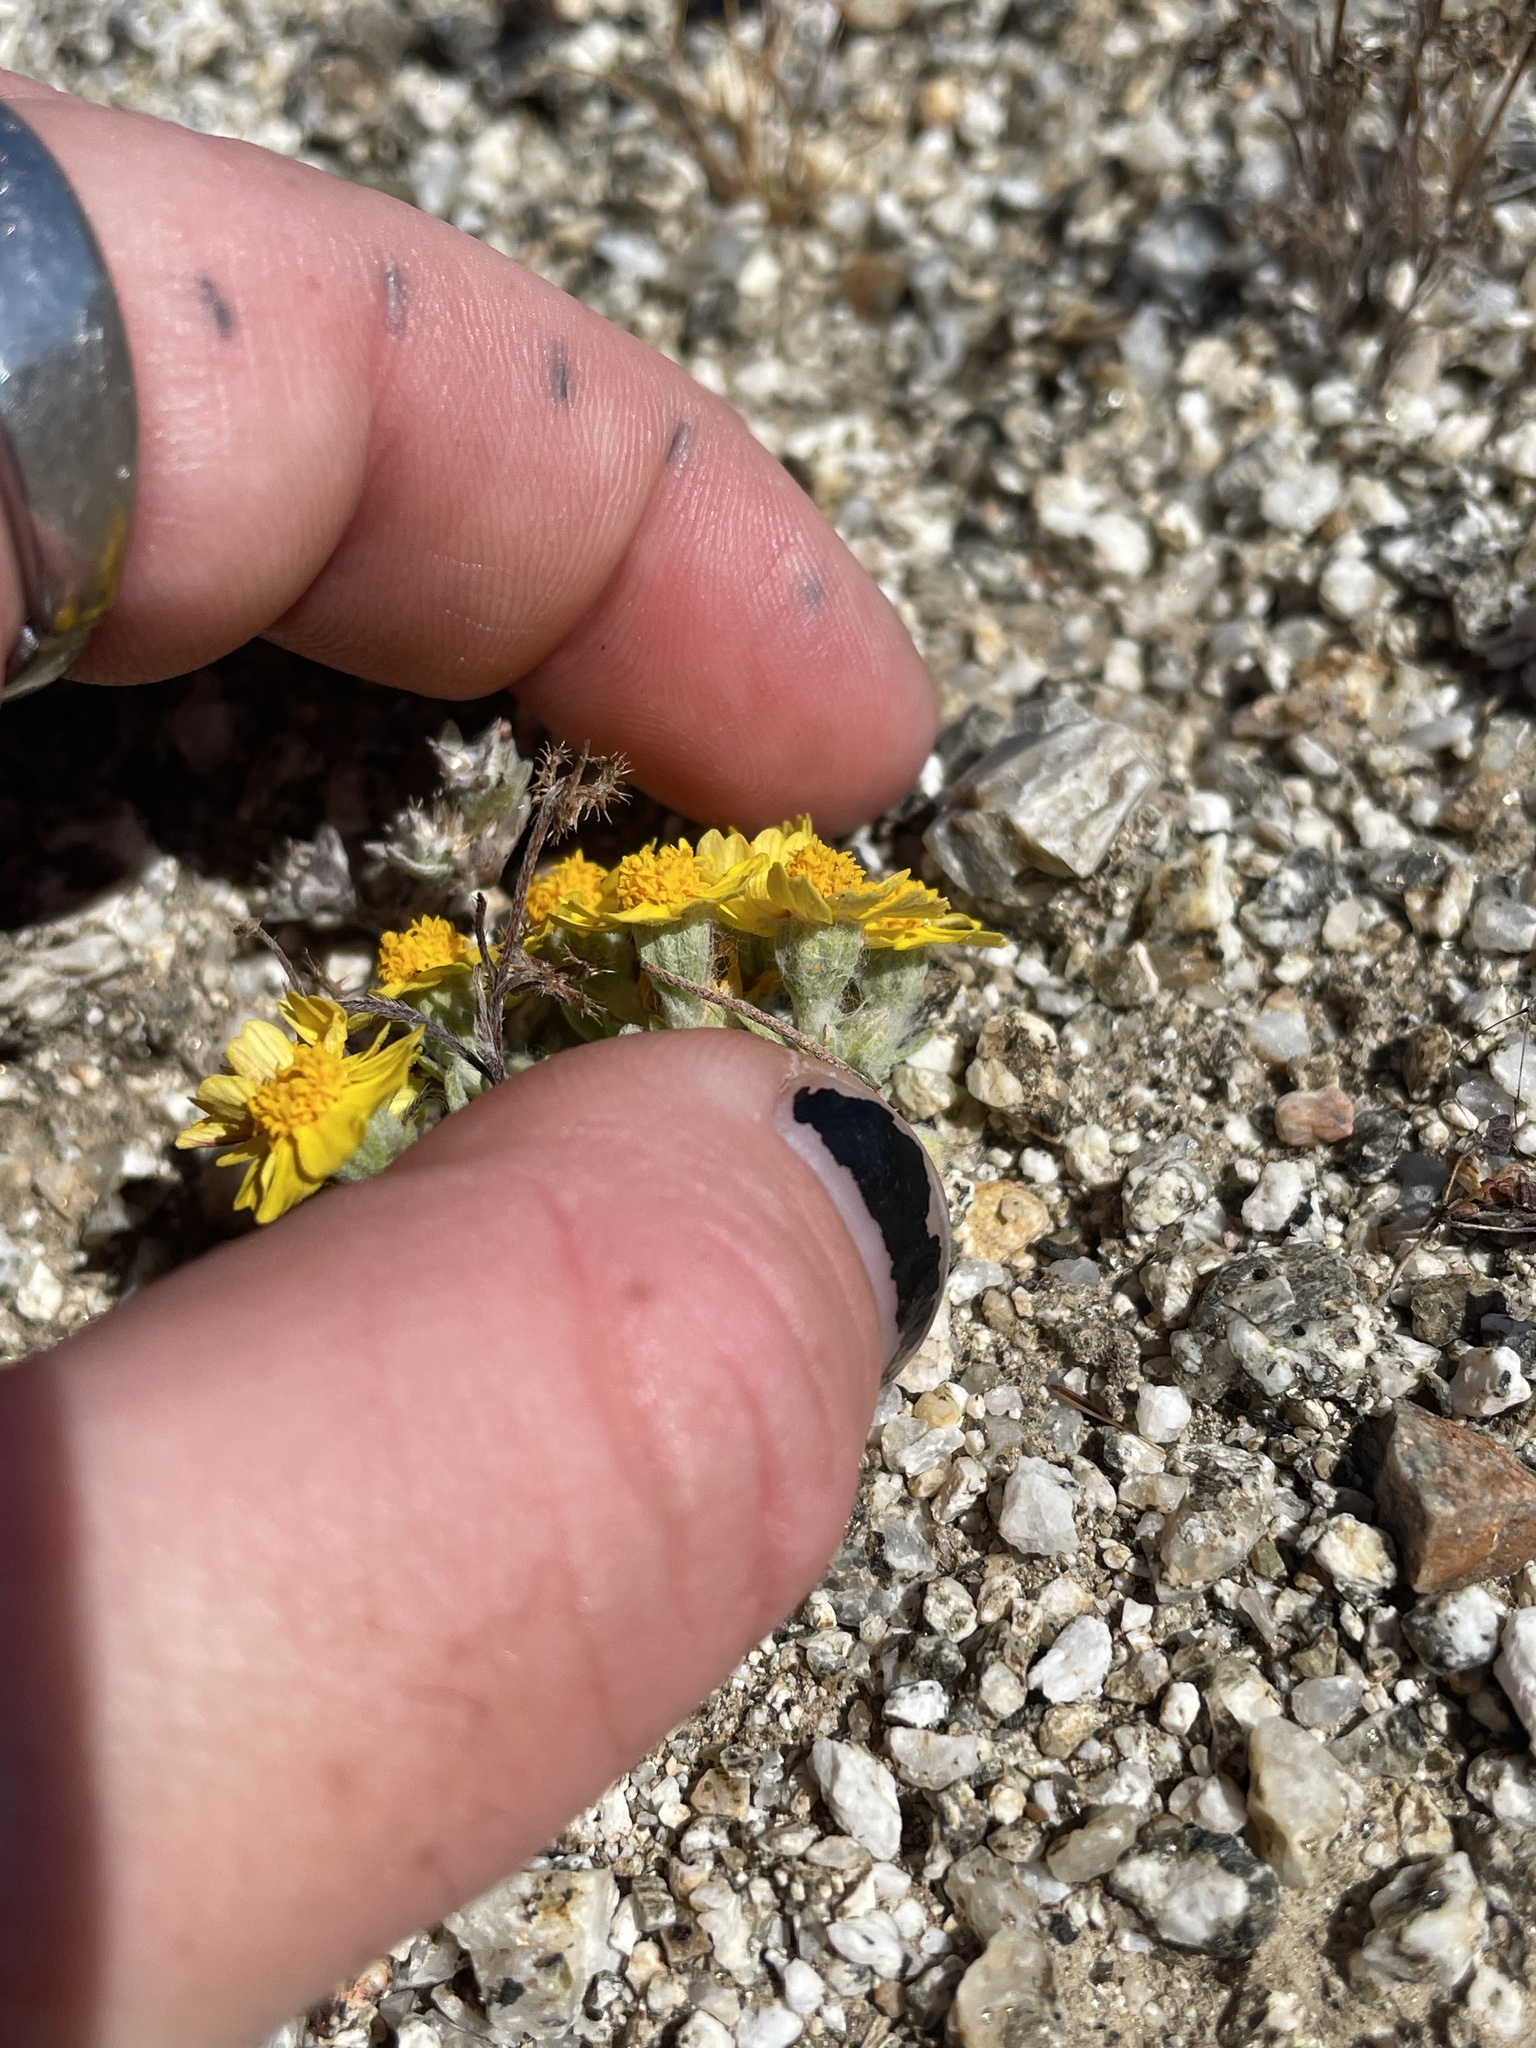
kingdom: Plantae
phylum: Tracheophyta
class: Magnoliopsida
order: Asterales
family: Asteraceae
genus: Eriophyllum
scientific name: Eriophyllum wallacei
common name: Wallace's woolly daisy
